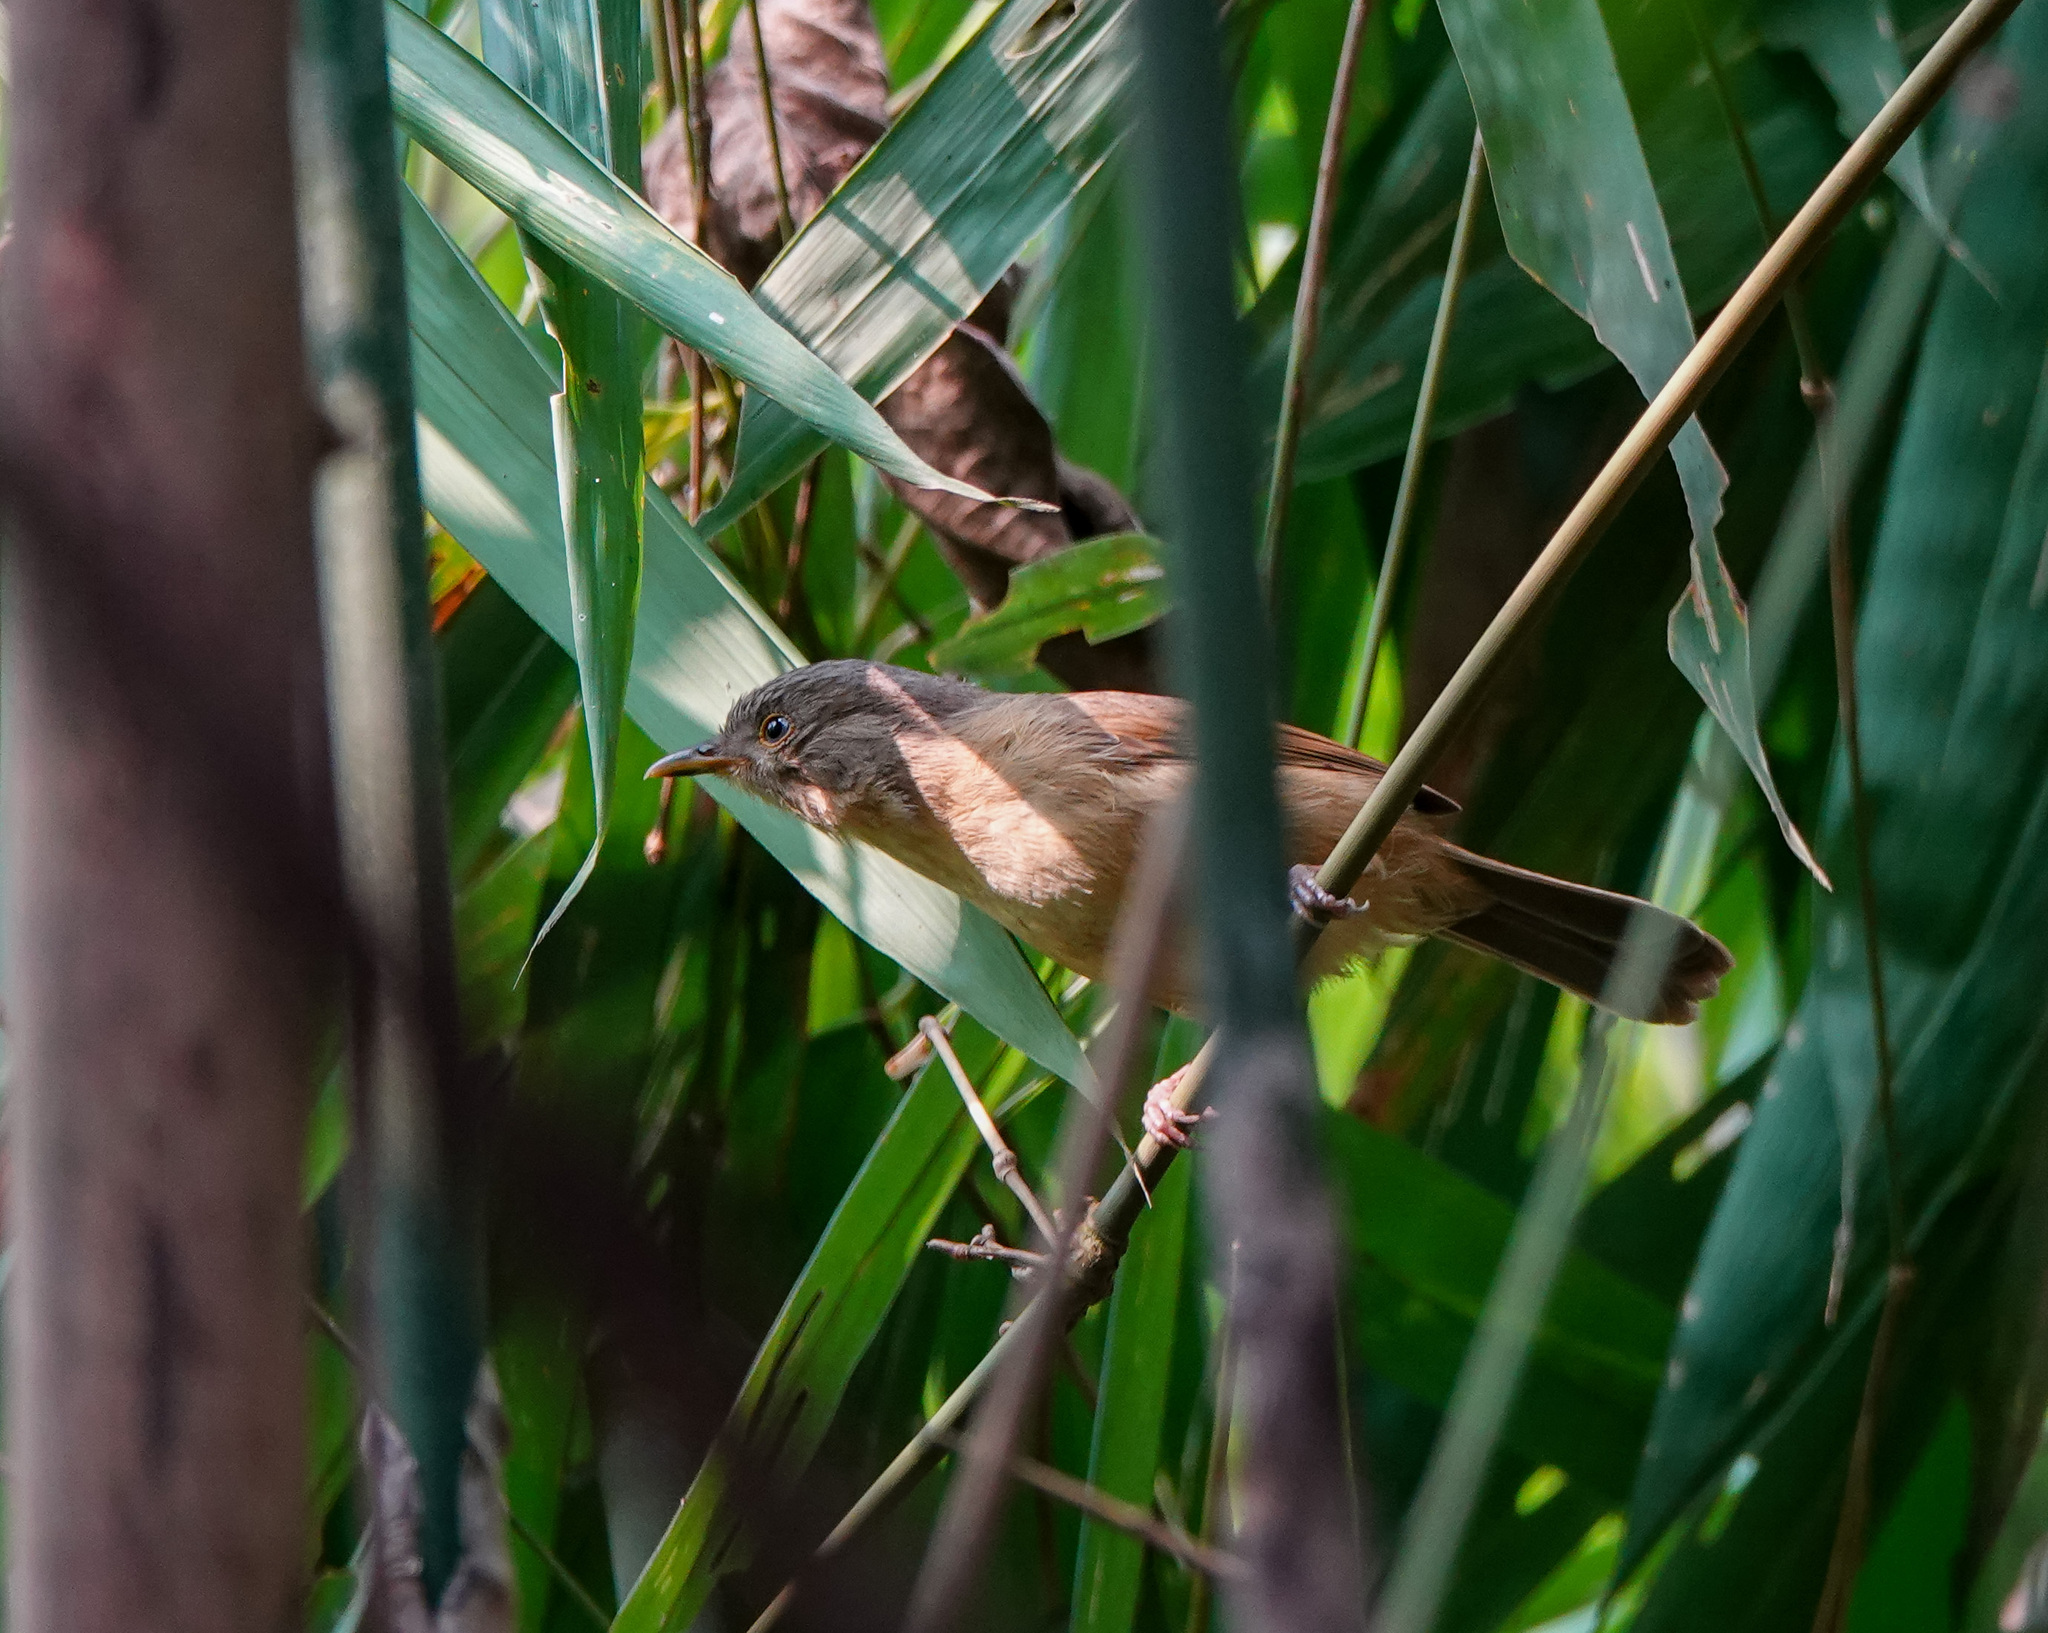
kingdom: Animalia
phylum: Chordata
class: Aves
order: Passeriformes
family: Pellorneidae
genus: Alcippe
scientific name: Alcippe poioicephala
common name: Brown-cheeked fulvetta
